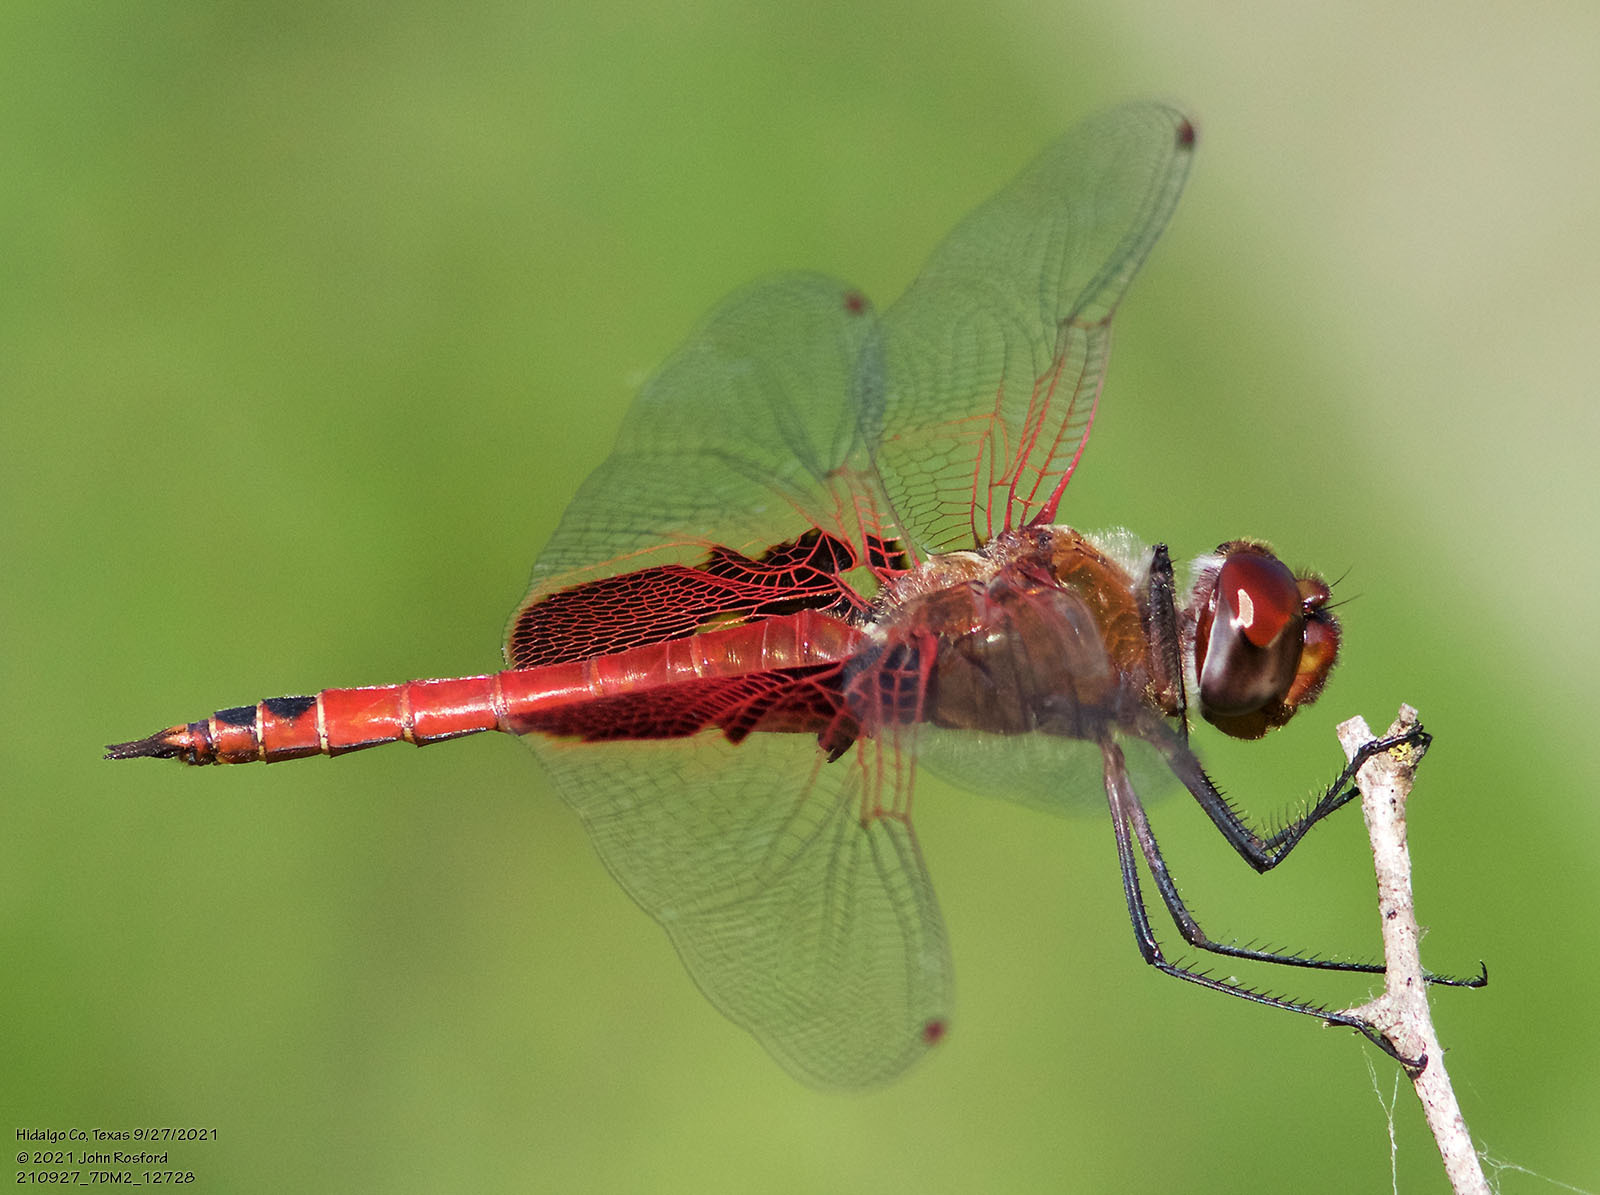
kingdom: Animalia
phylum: Arthropoda
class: Insecta
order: Odonata
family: Libellulidae
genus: Tramea
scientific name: Tramea onusta
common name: Red saddlebags
